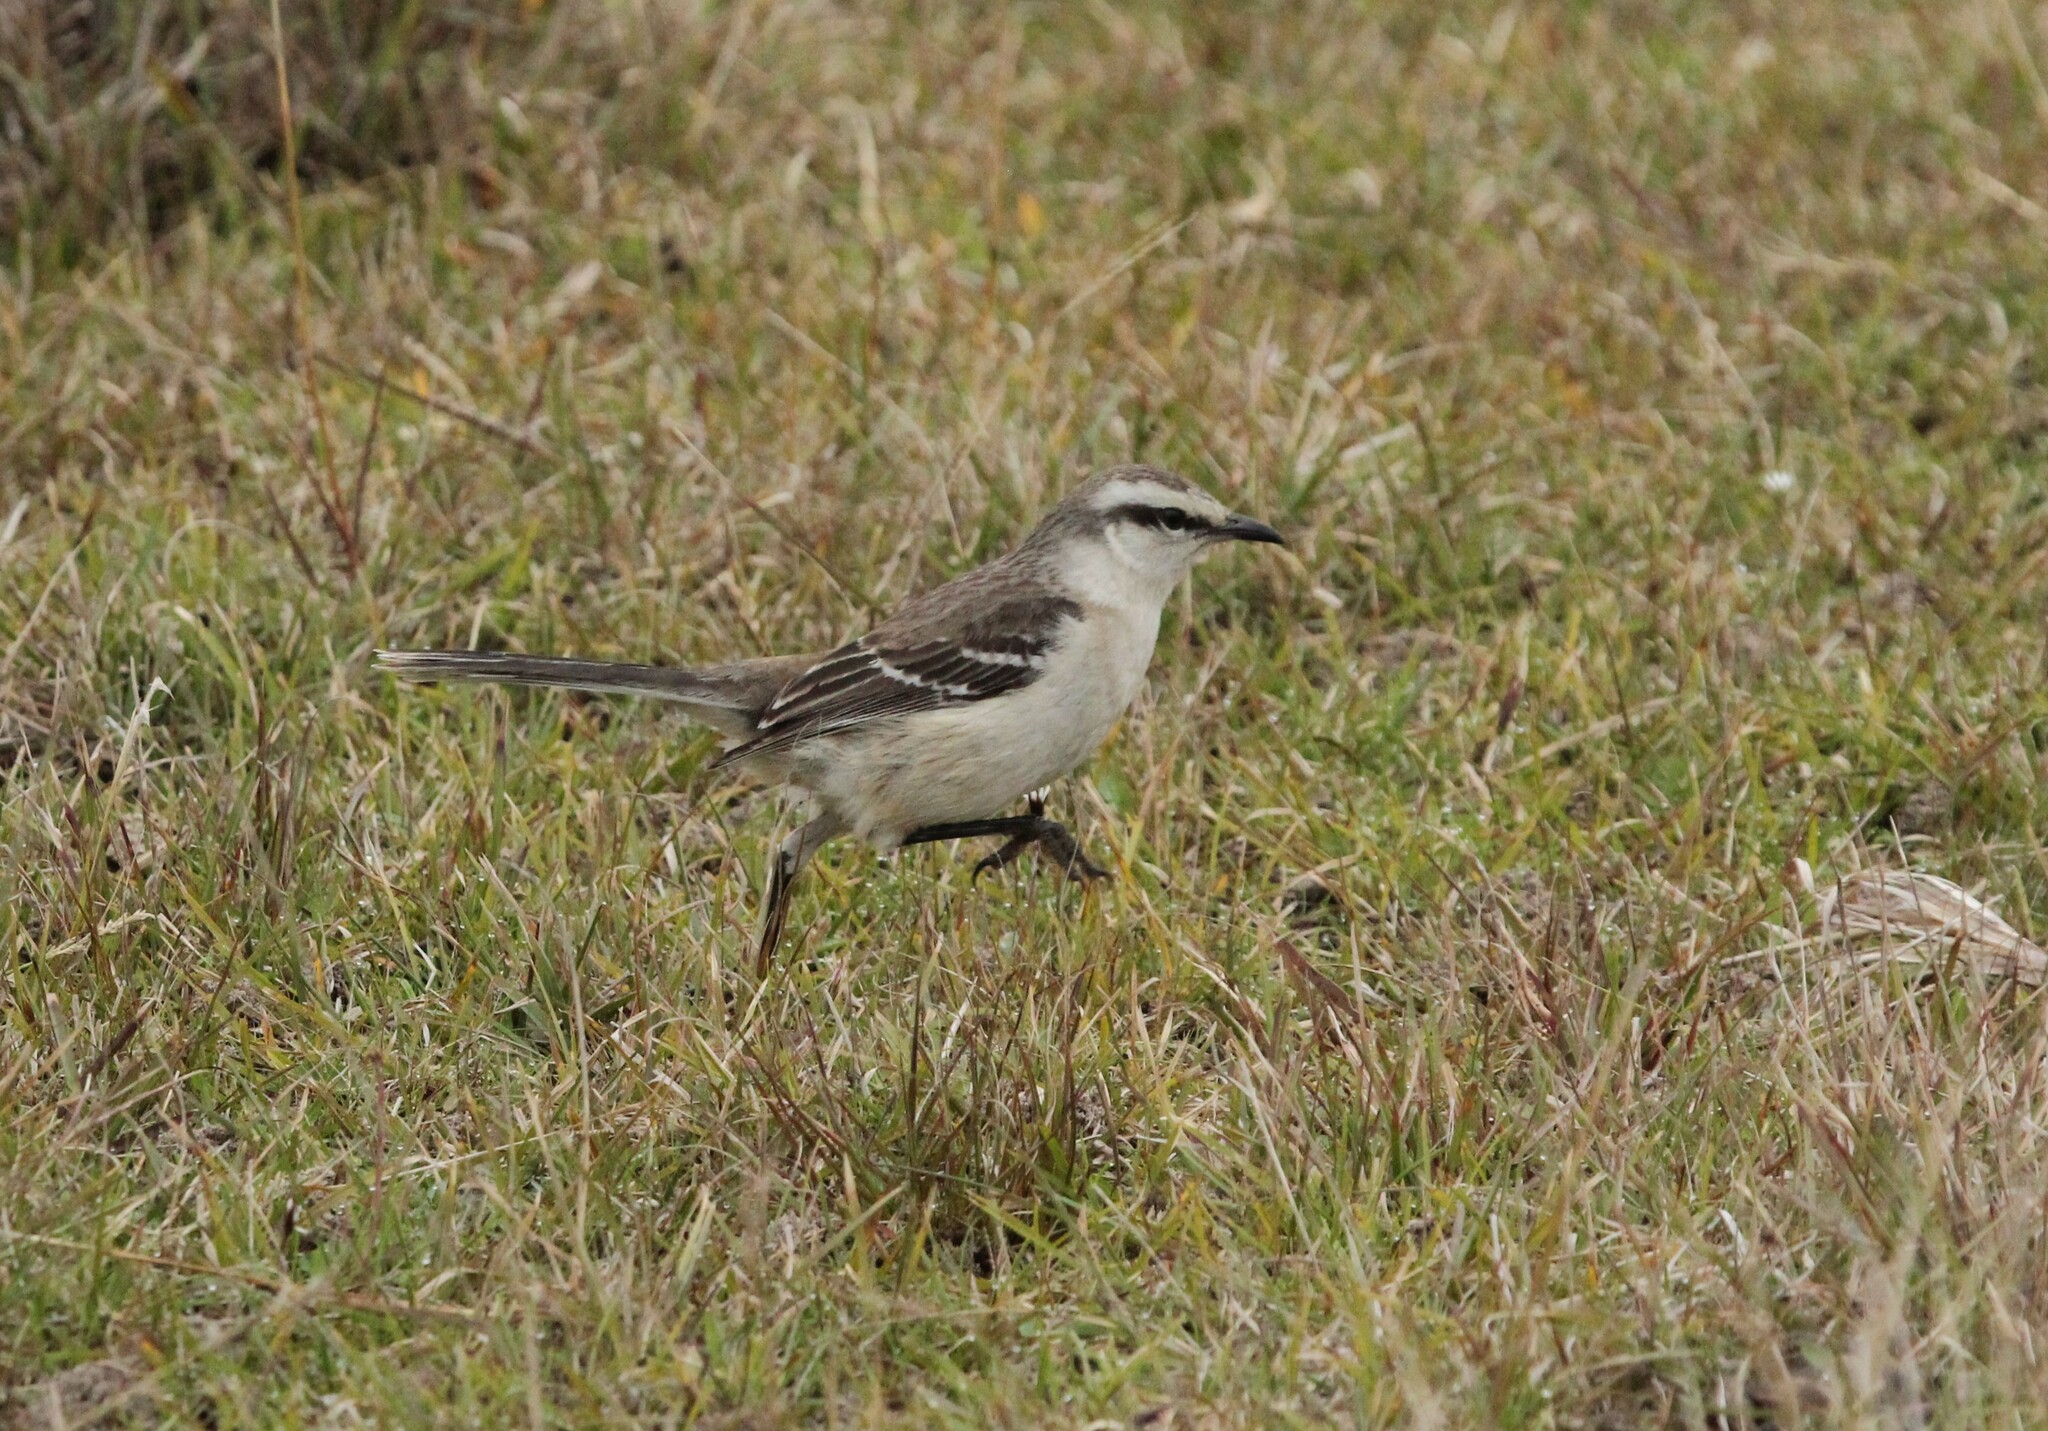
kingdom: Animalia
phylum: Chordata
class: Aves
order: Passeriformes
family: Mimidae
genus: Mimus
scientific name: Mimus saturninus
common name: Chalk-browed mockingbird
